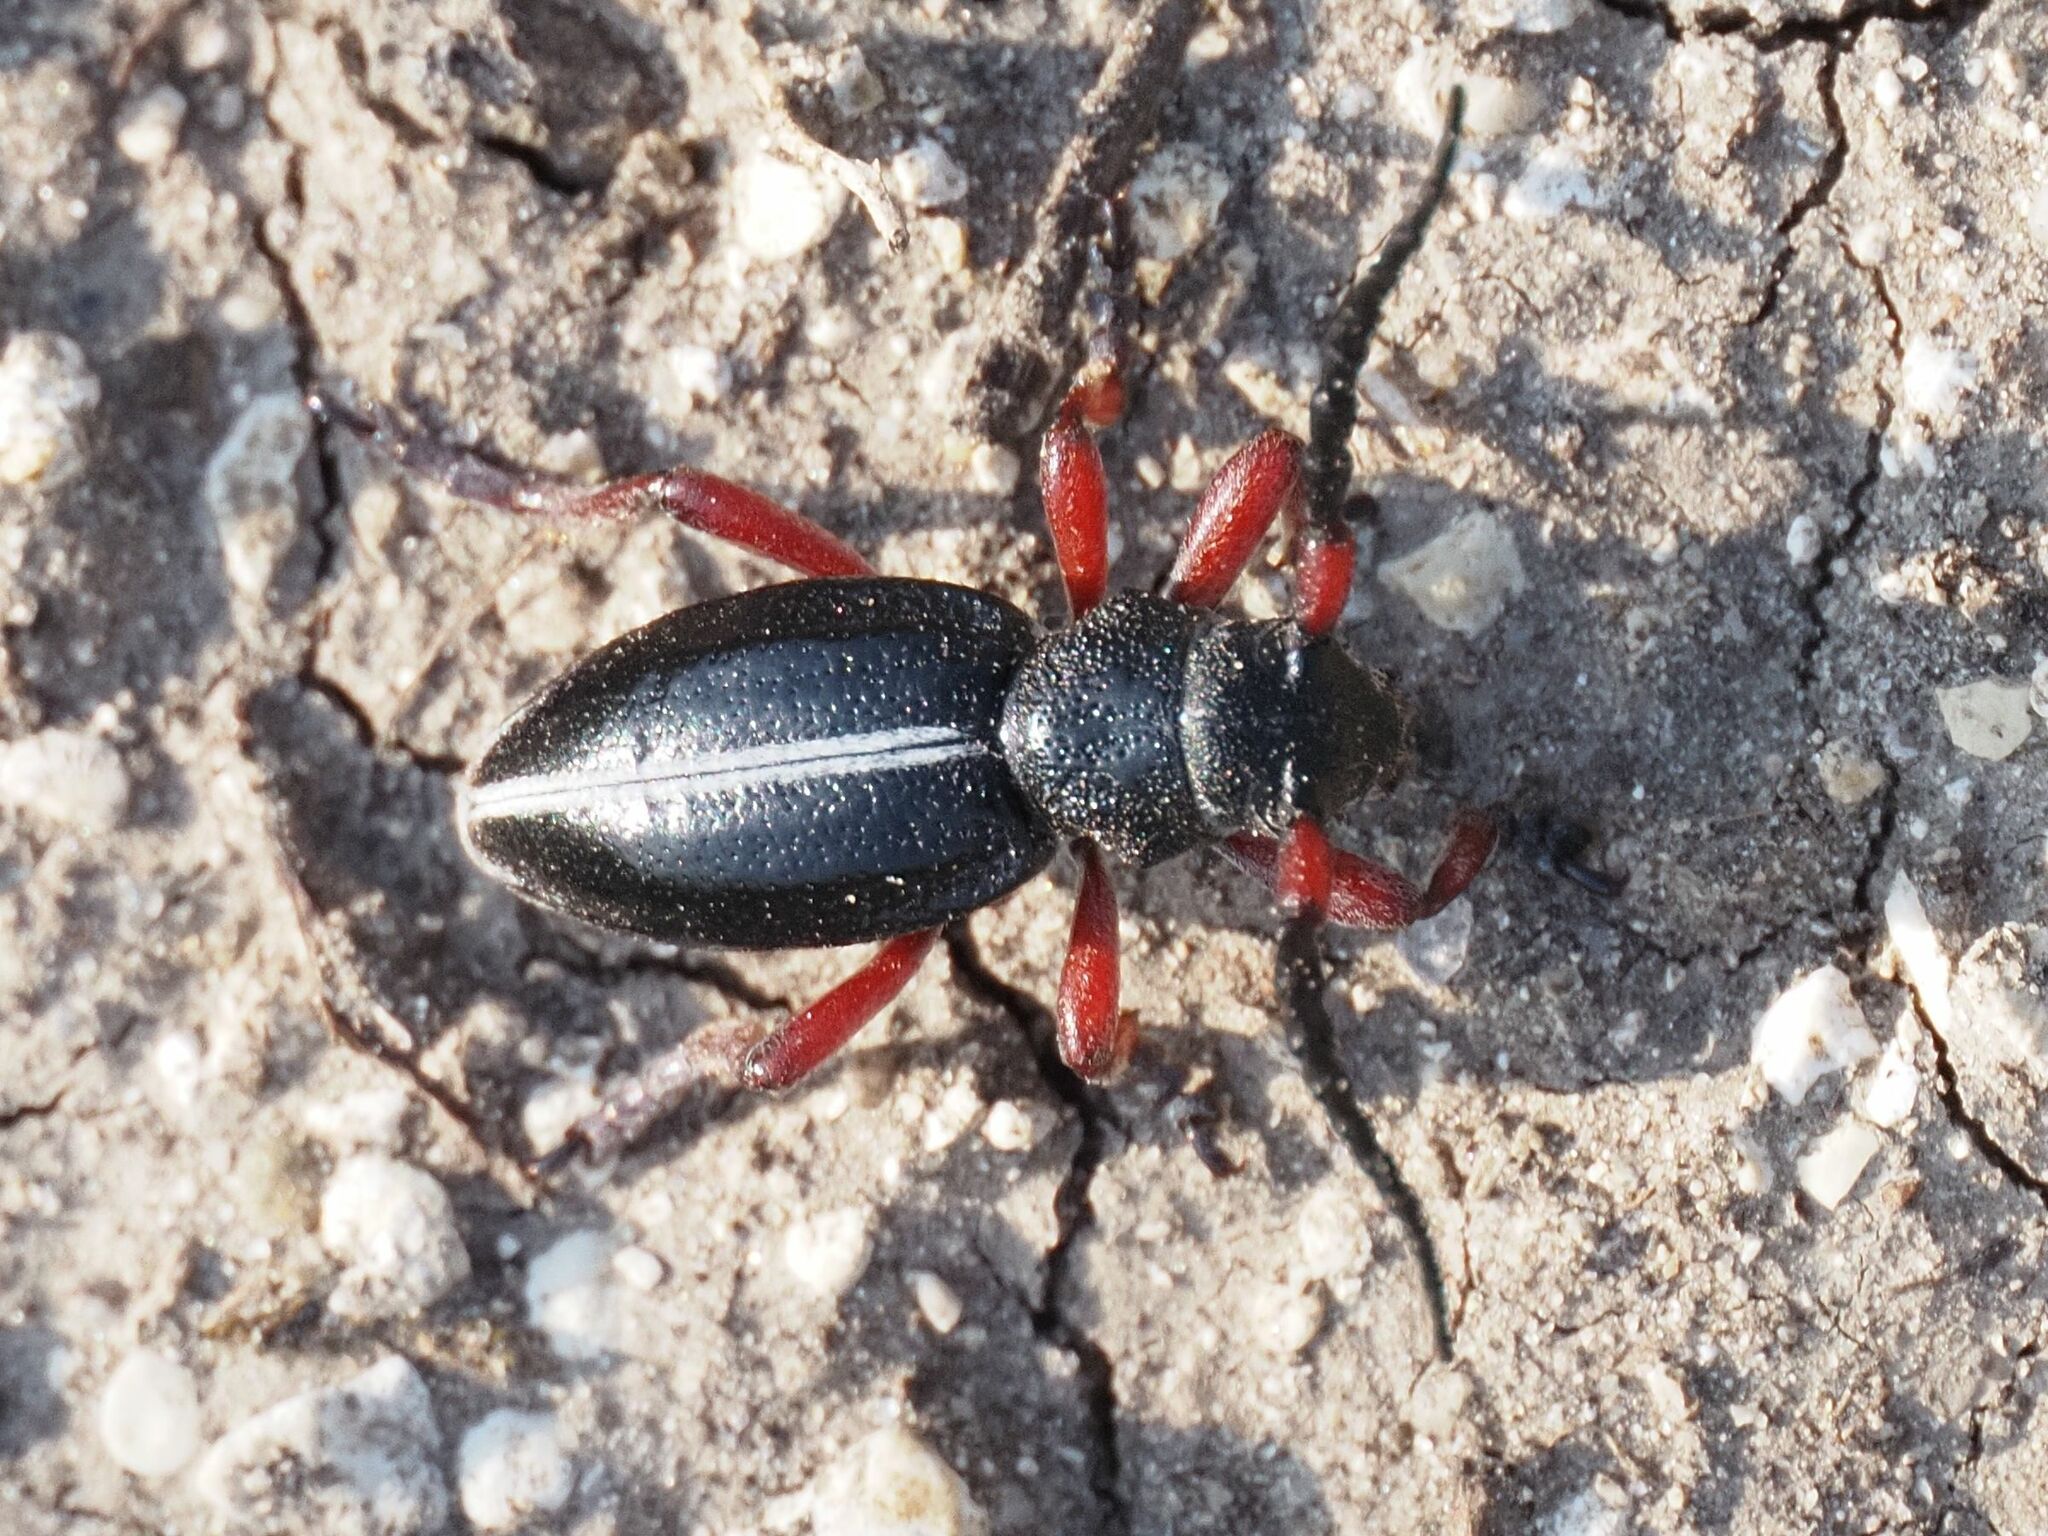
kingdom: Animalia
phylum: Arthropoda
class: Insecta
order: Coleoptera
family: Cerambycidae
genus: Dorcadion
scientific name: Dorcadion pedestre
